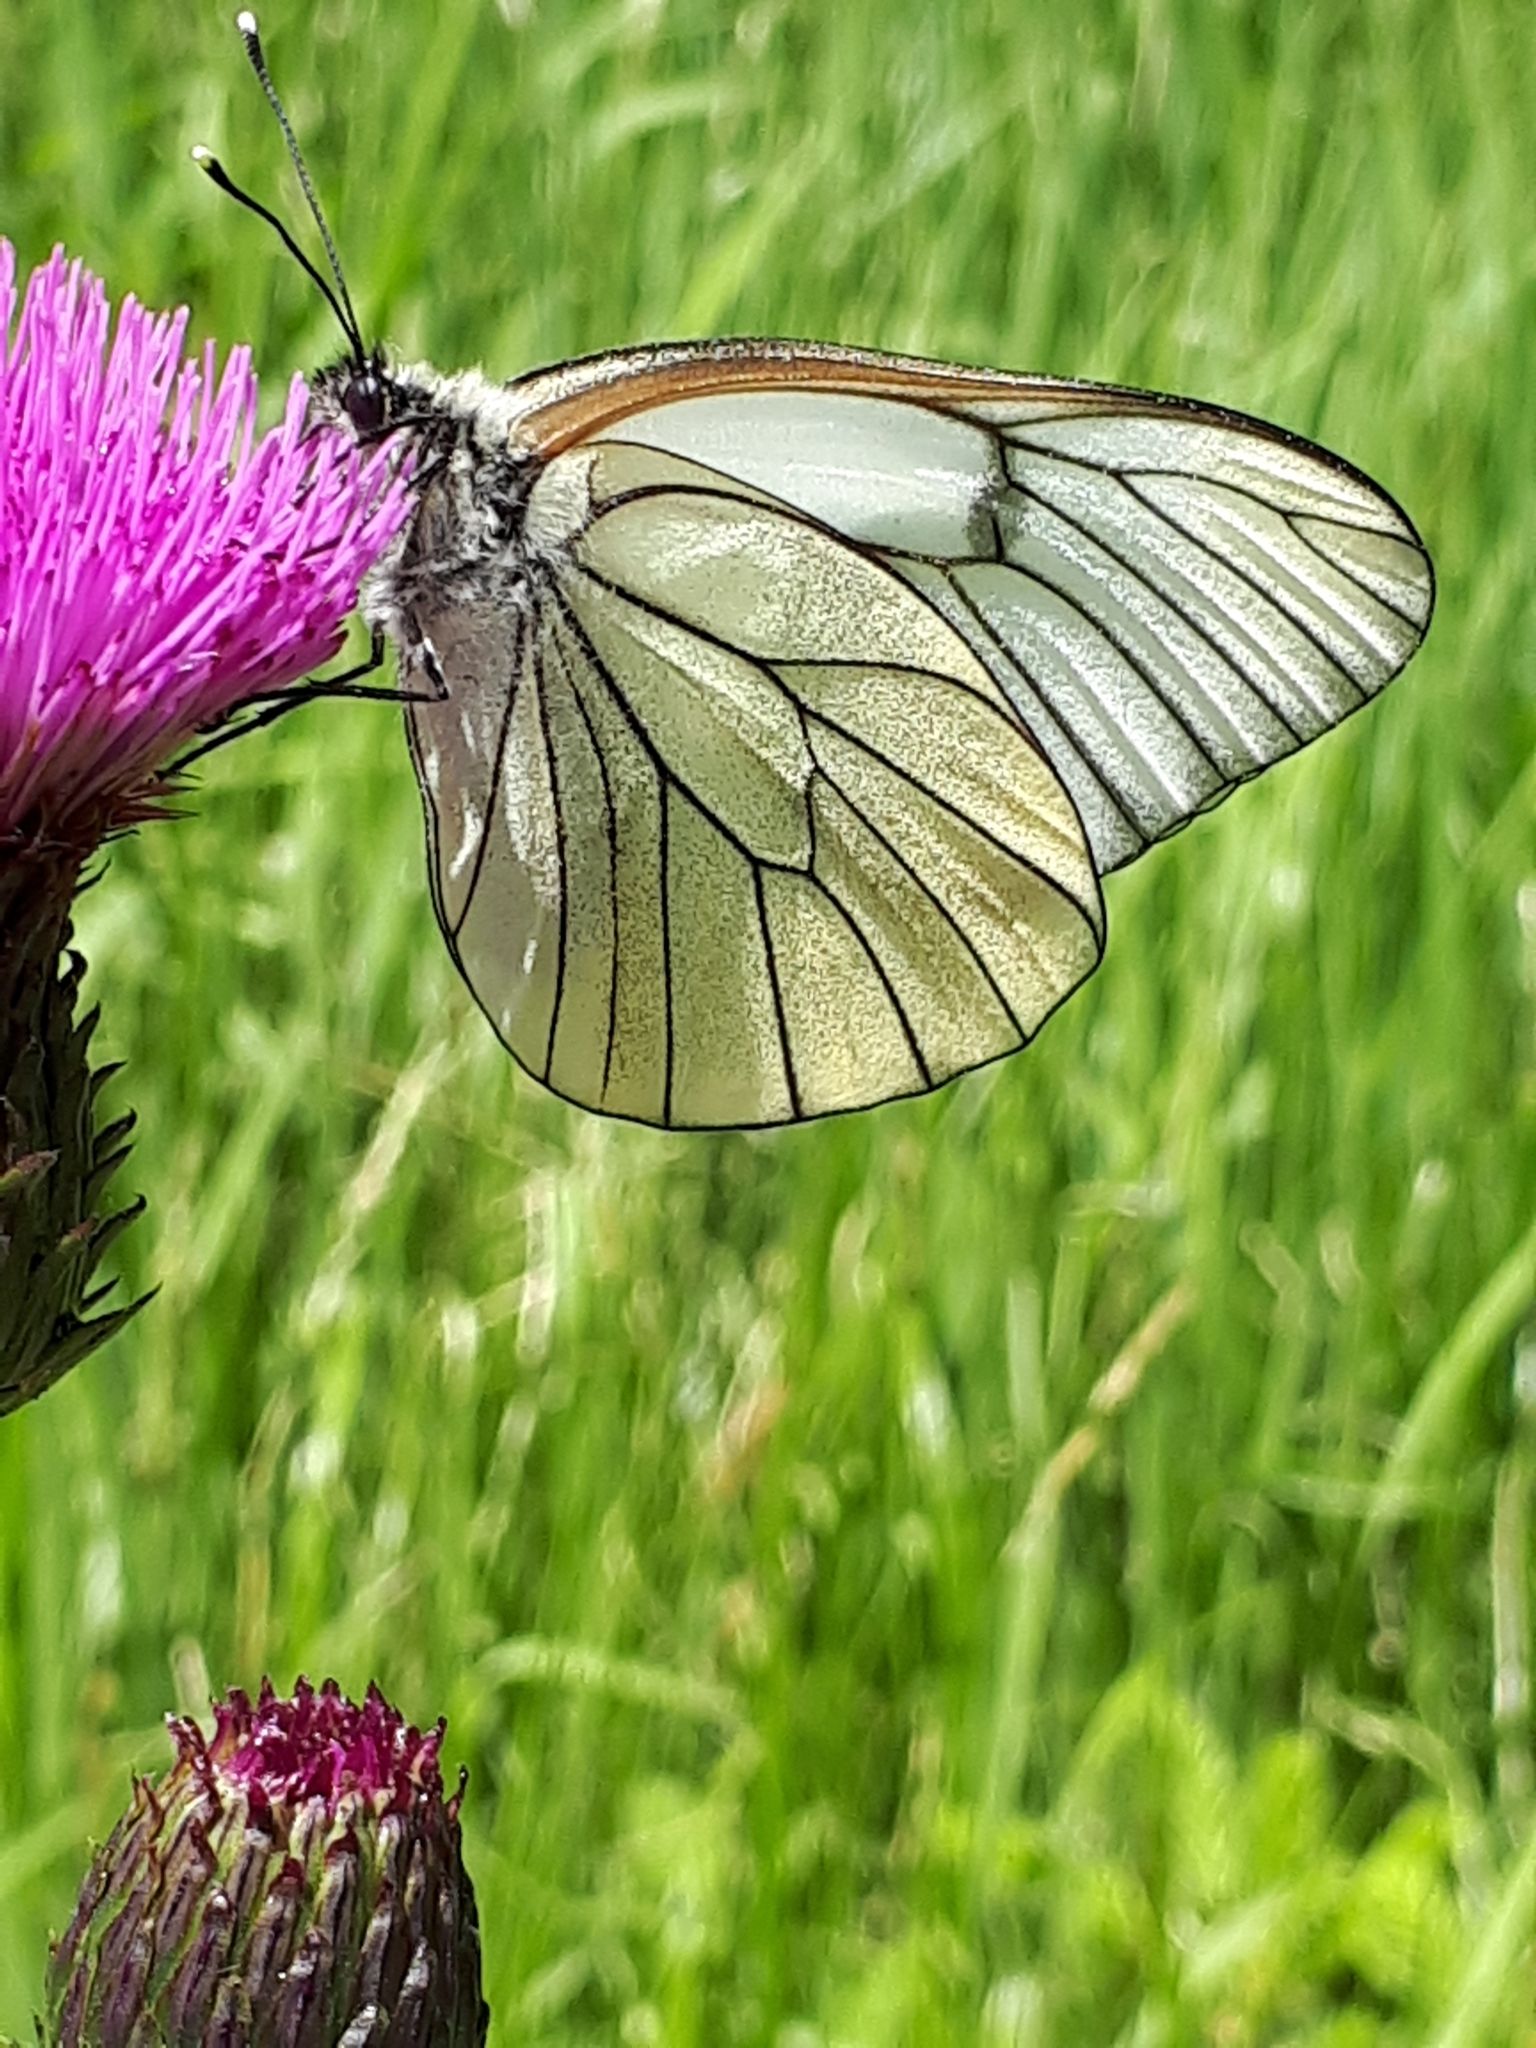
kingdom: Animalia
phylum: Arthropoda
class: Insecta
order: Lepidoptera
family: Pieridae
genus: Aporia
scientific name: Aporia crataegi
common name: Black-veined white
